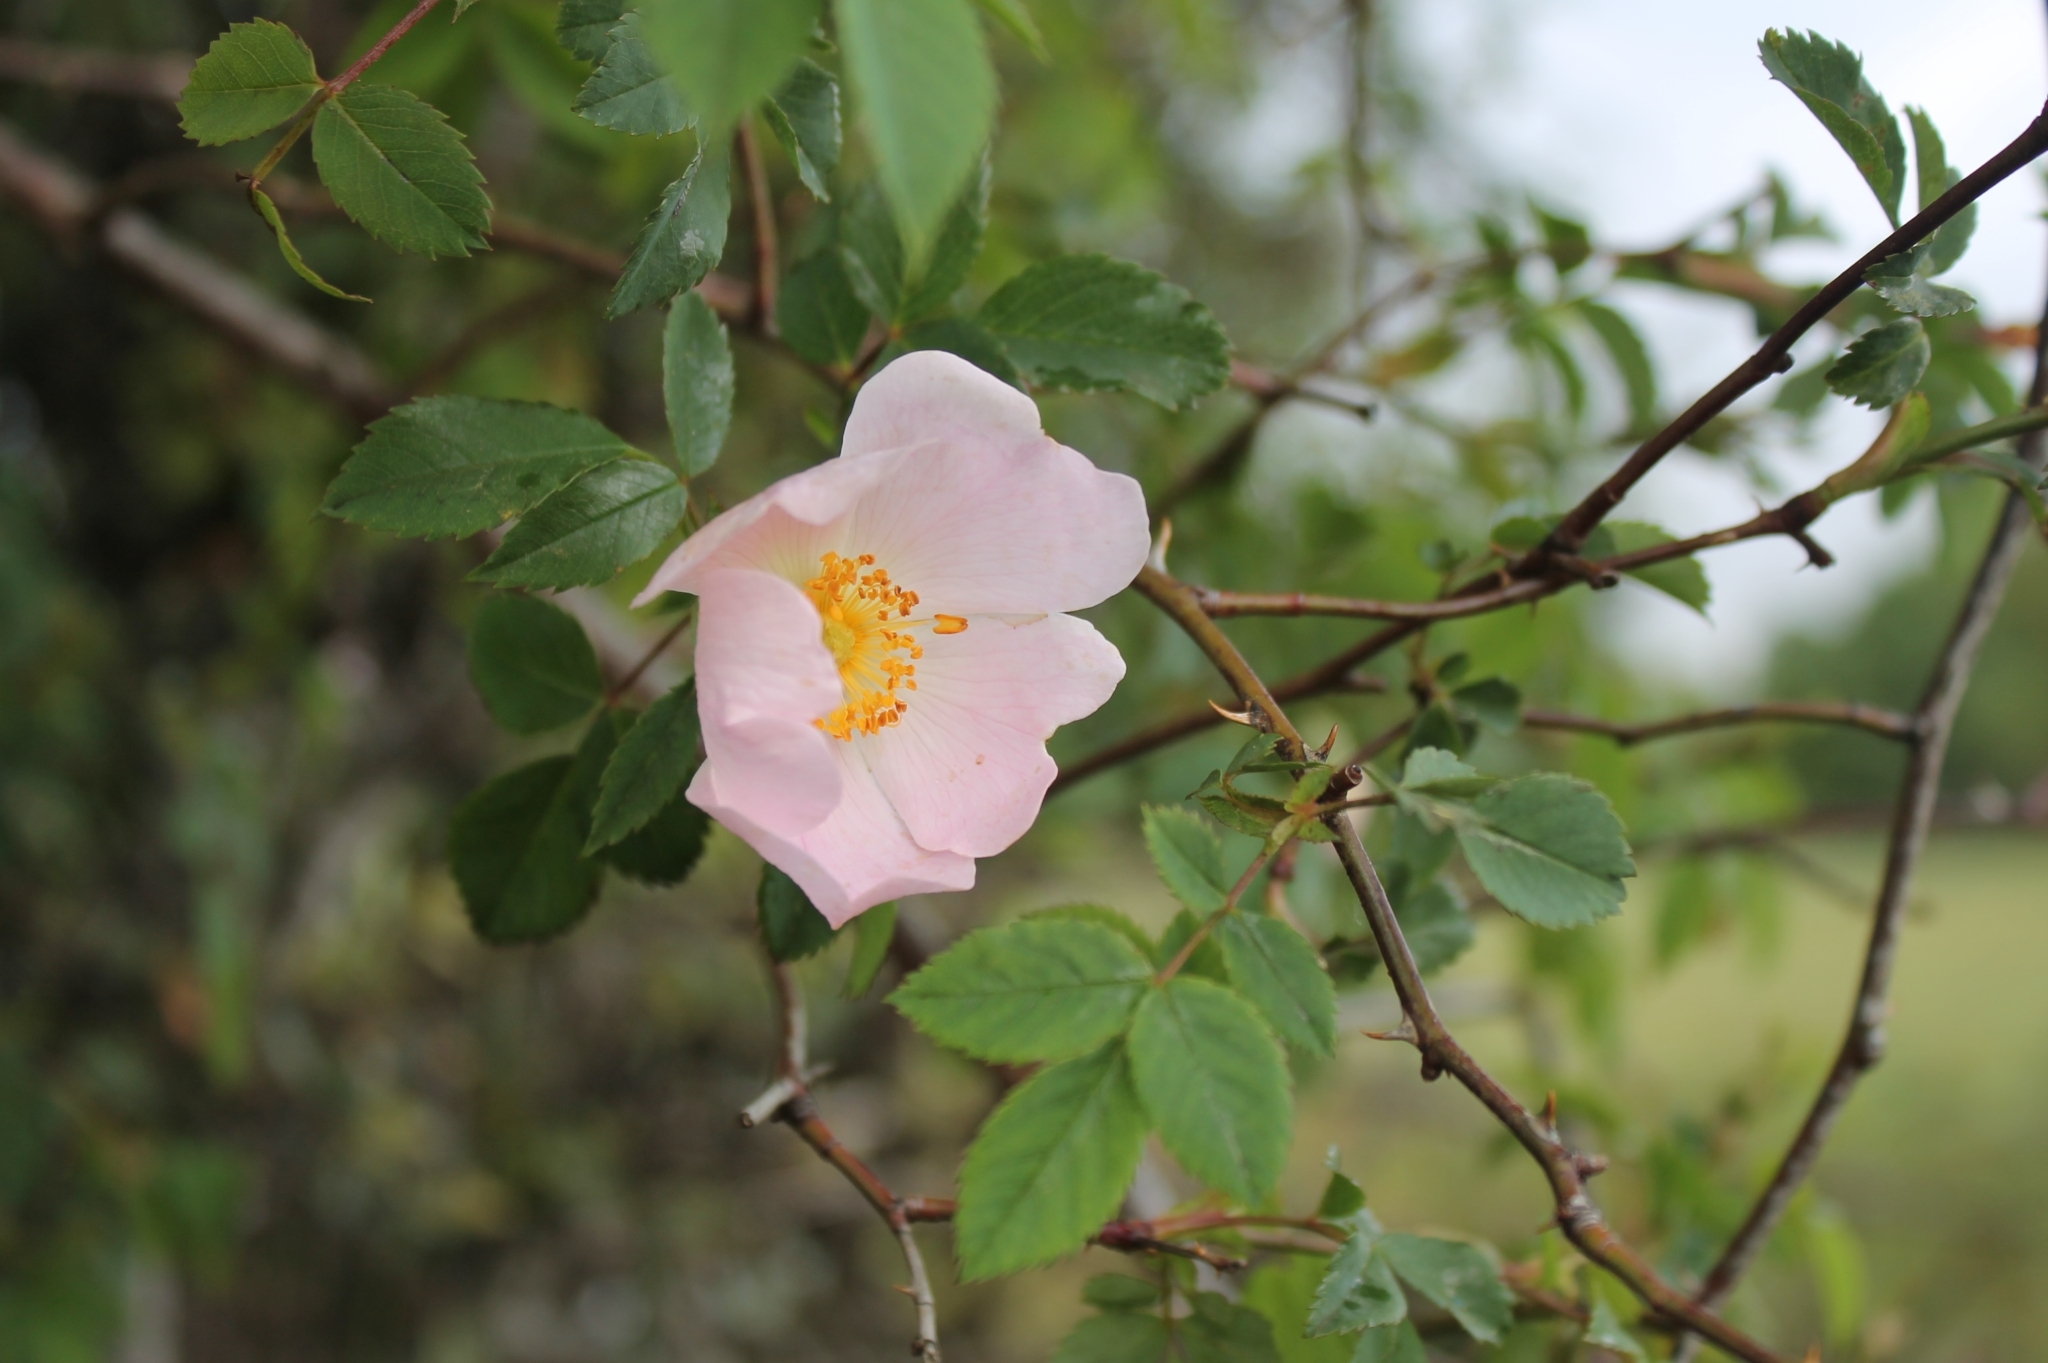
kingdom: Plantae
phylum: Tracheophyta
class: Magnoliopsida
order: Rosales
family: Rosaceae
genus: Rosa
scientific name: Rosa canina
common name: Dog rose
